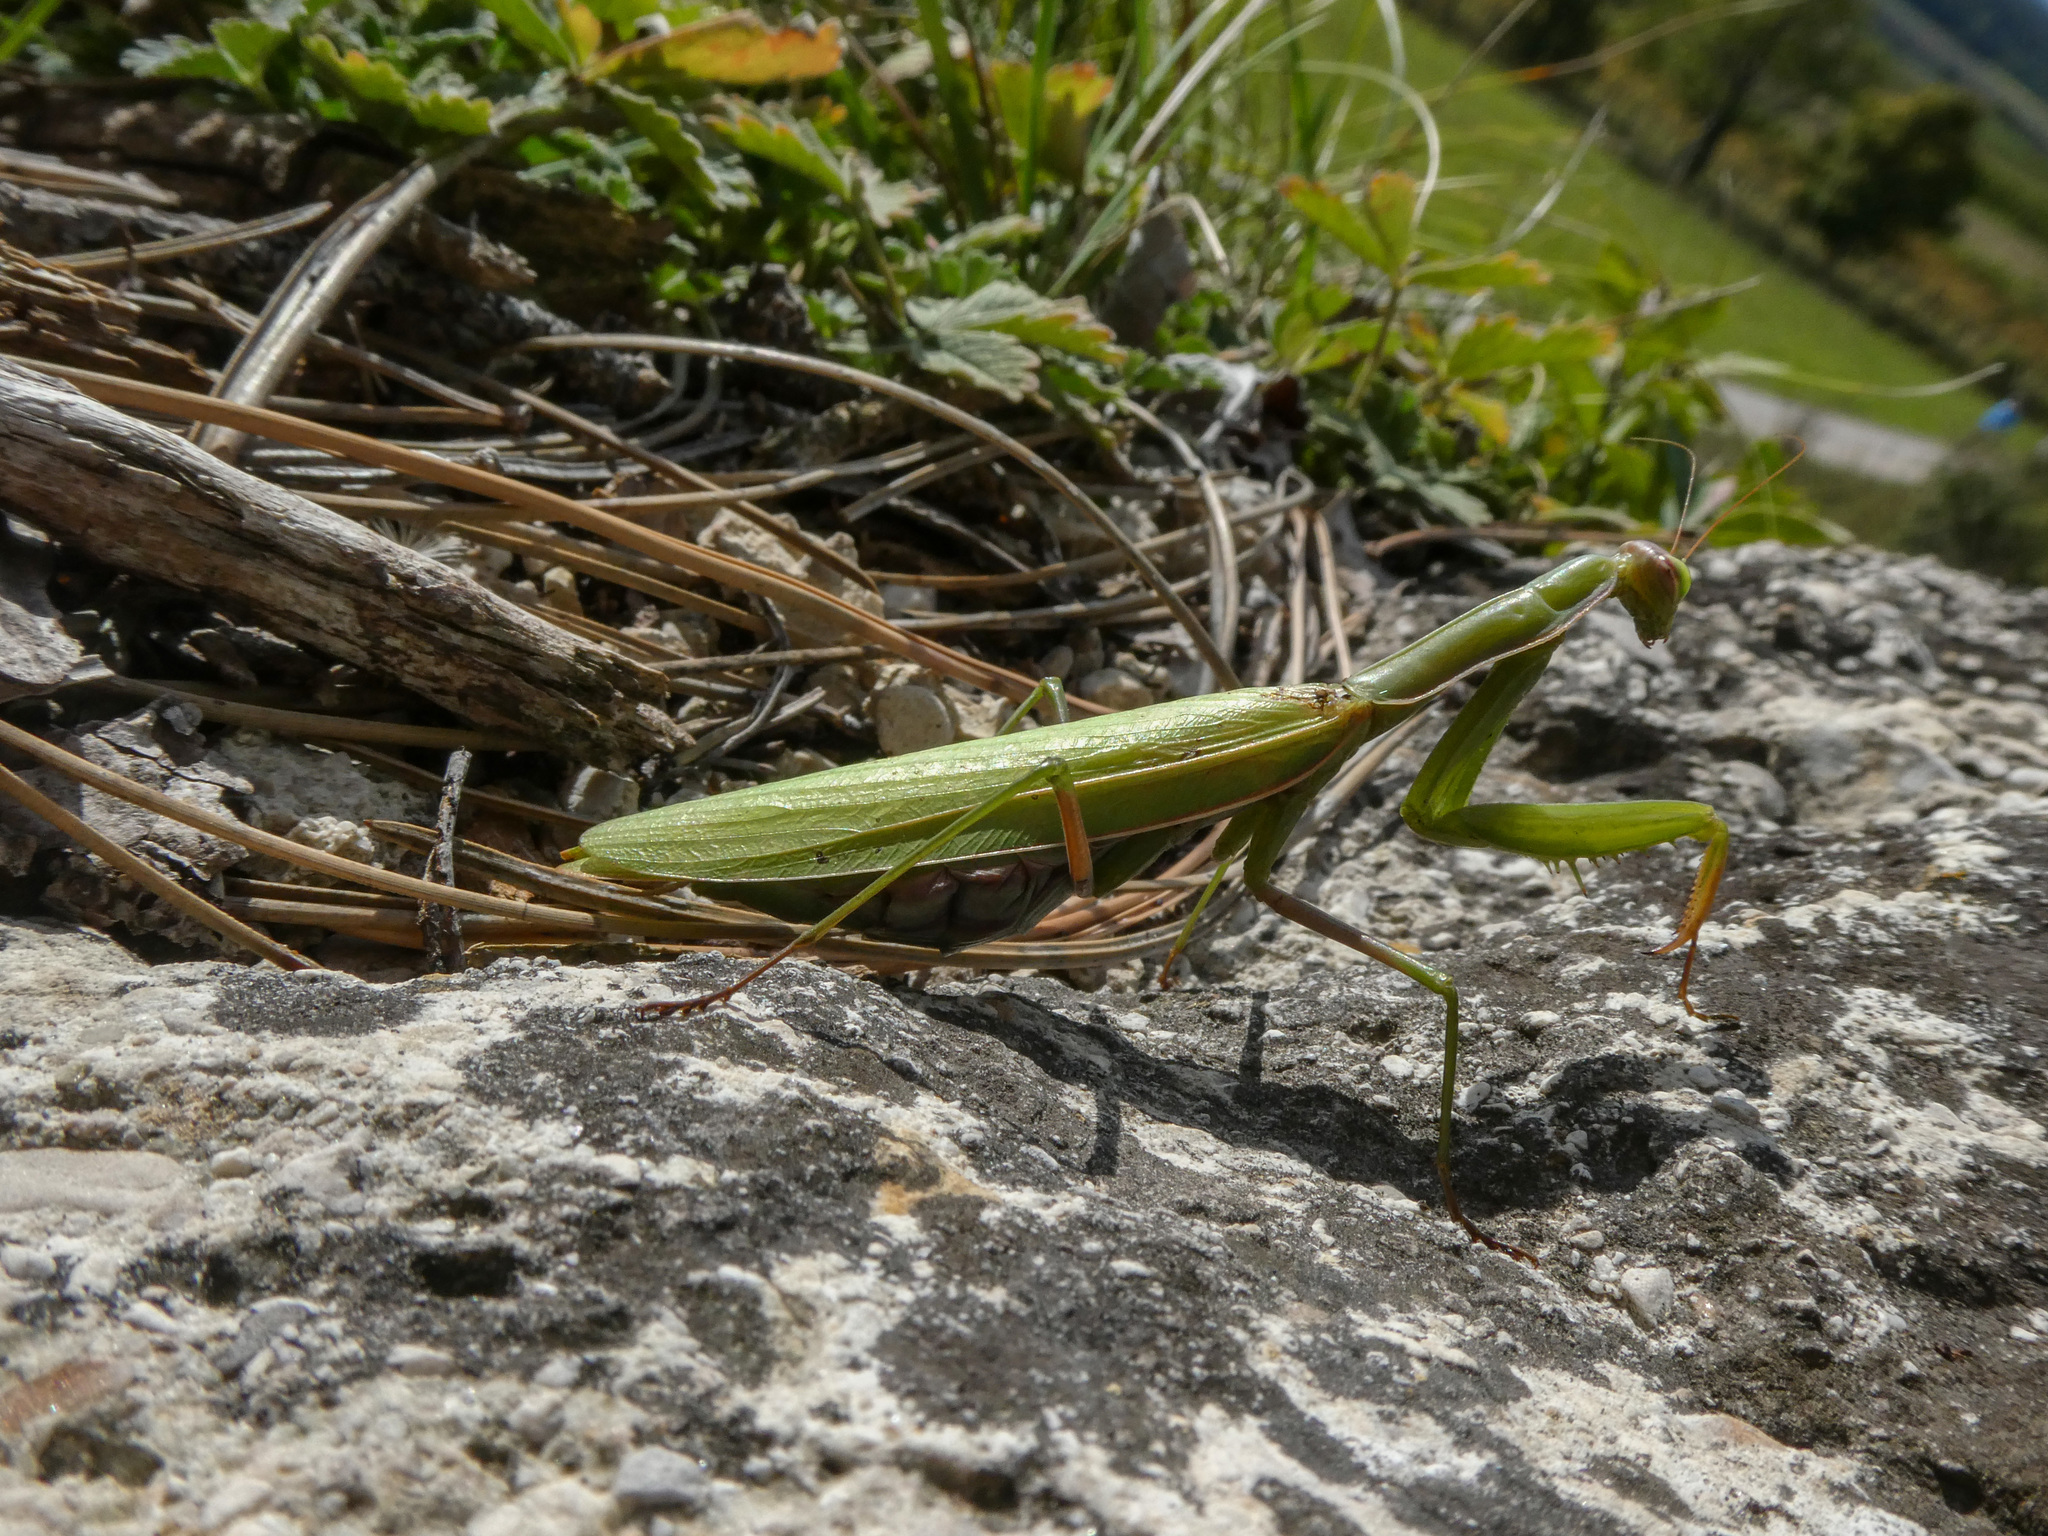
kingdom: Animalia
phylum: Arthropoda
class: Insecta
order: Mantodea
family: Mantidae
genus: Mantis
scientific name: Mantis religiosa
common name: Praying mantis
